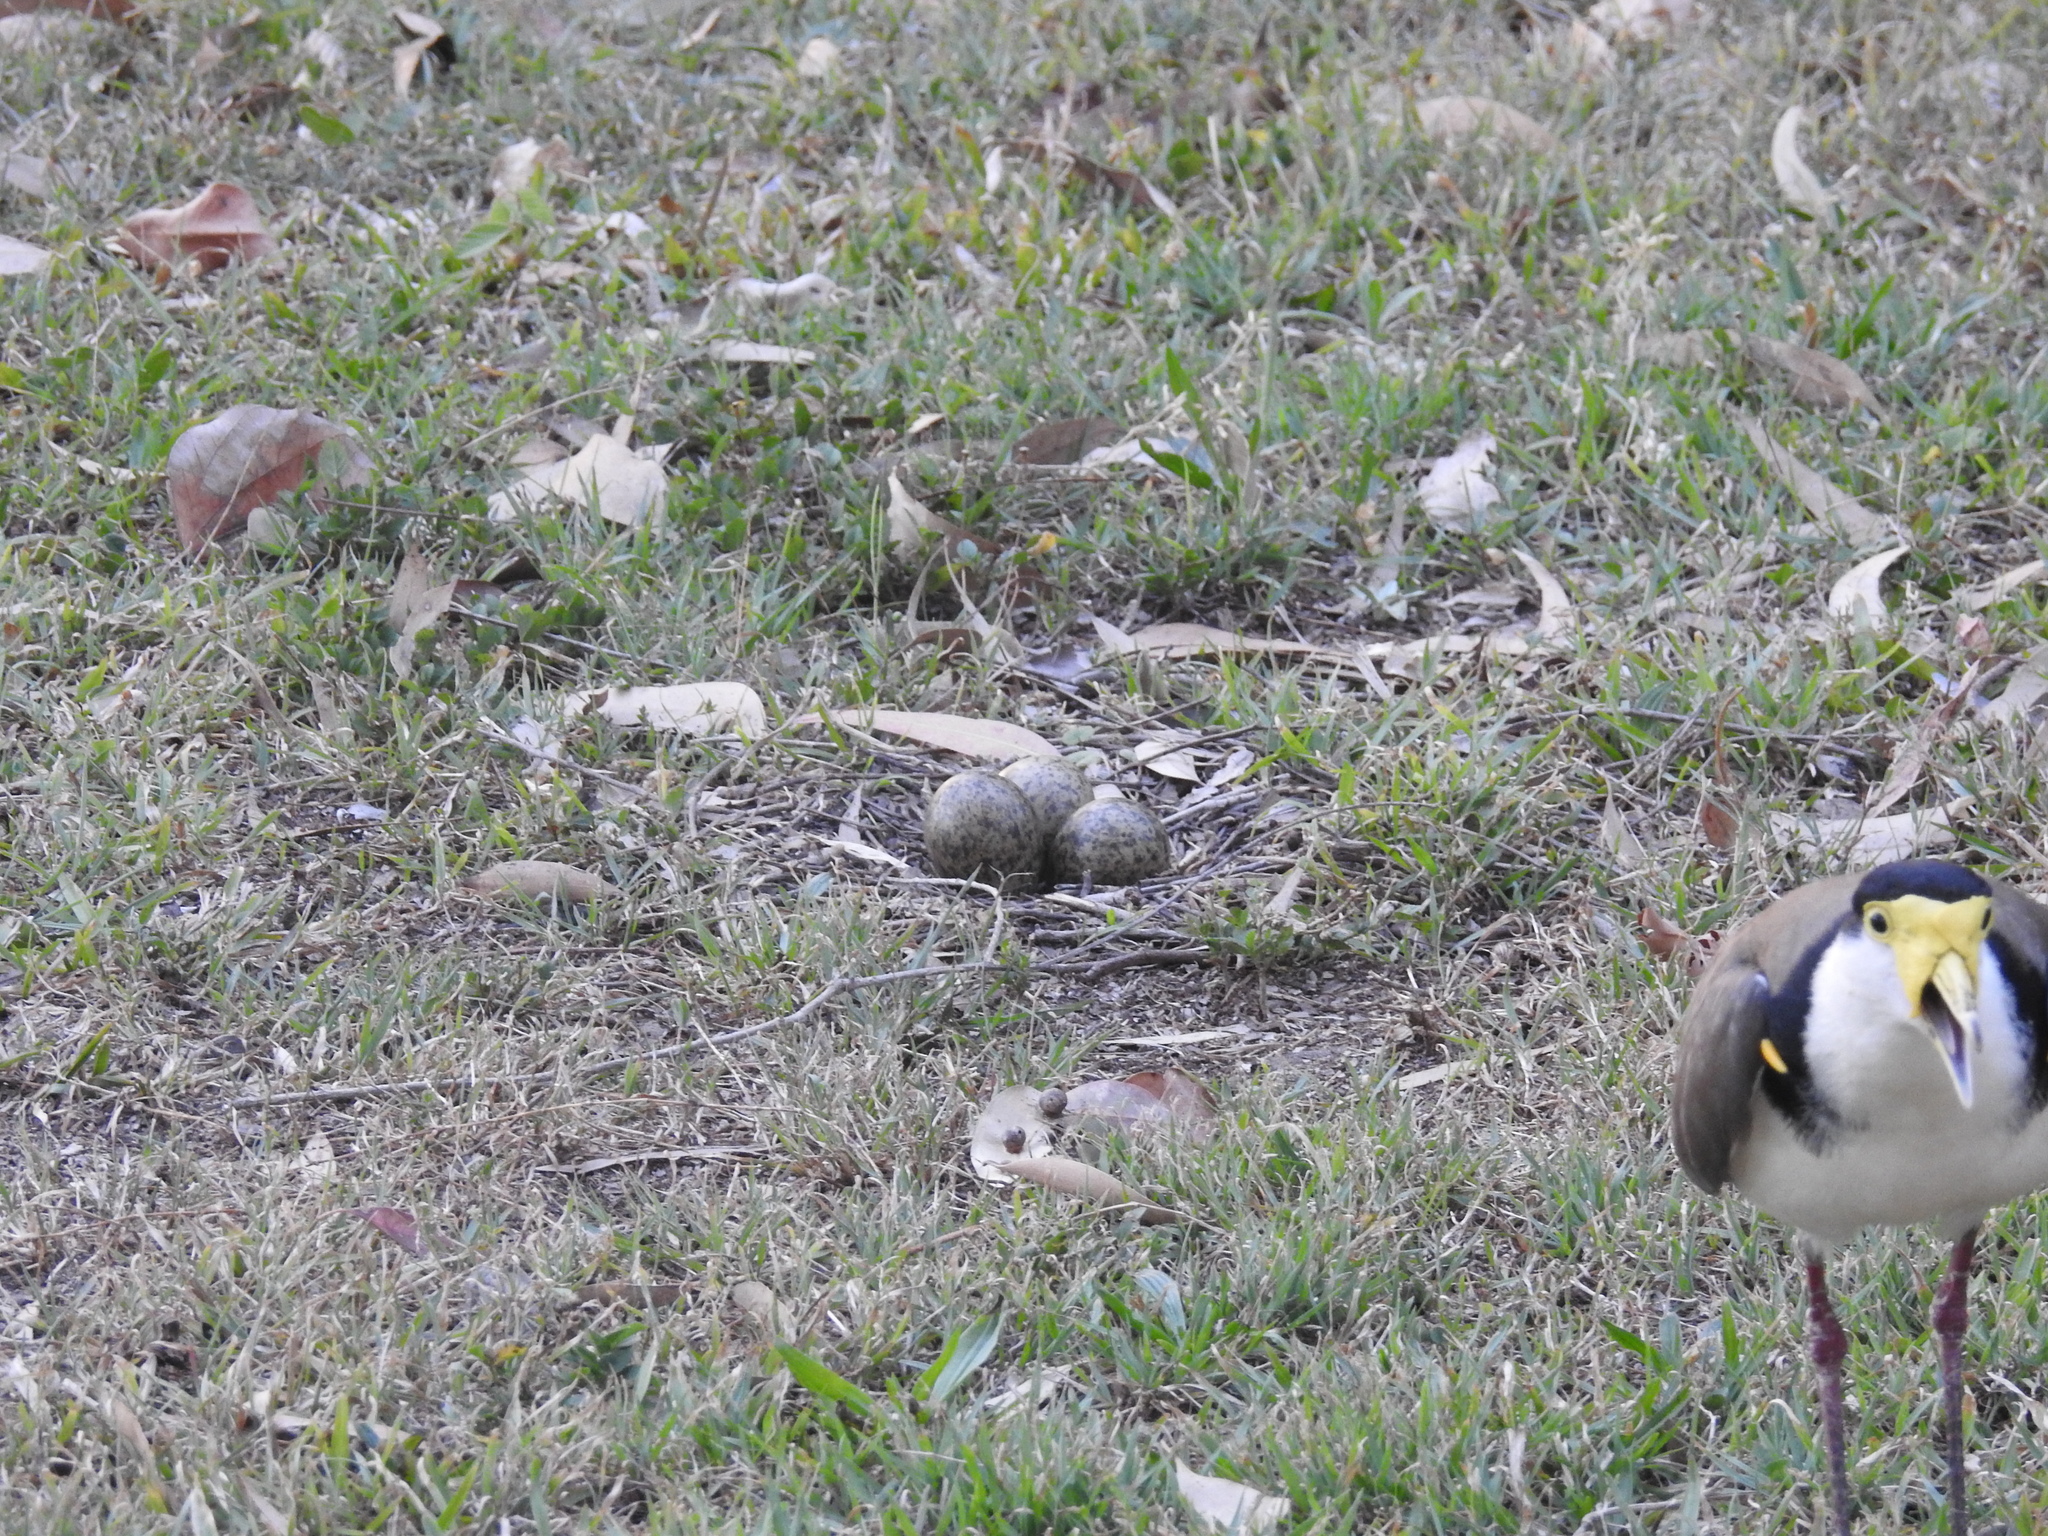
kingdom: Animalia
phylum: Chordata
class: Aves
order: Charadriiformes
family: Charadriidae
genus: Vanellus
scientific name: Vanellus miles
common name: Masked lapwing
